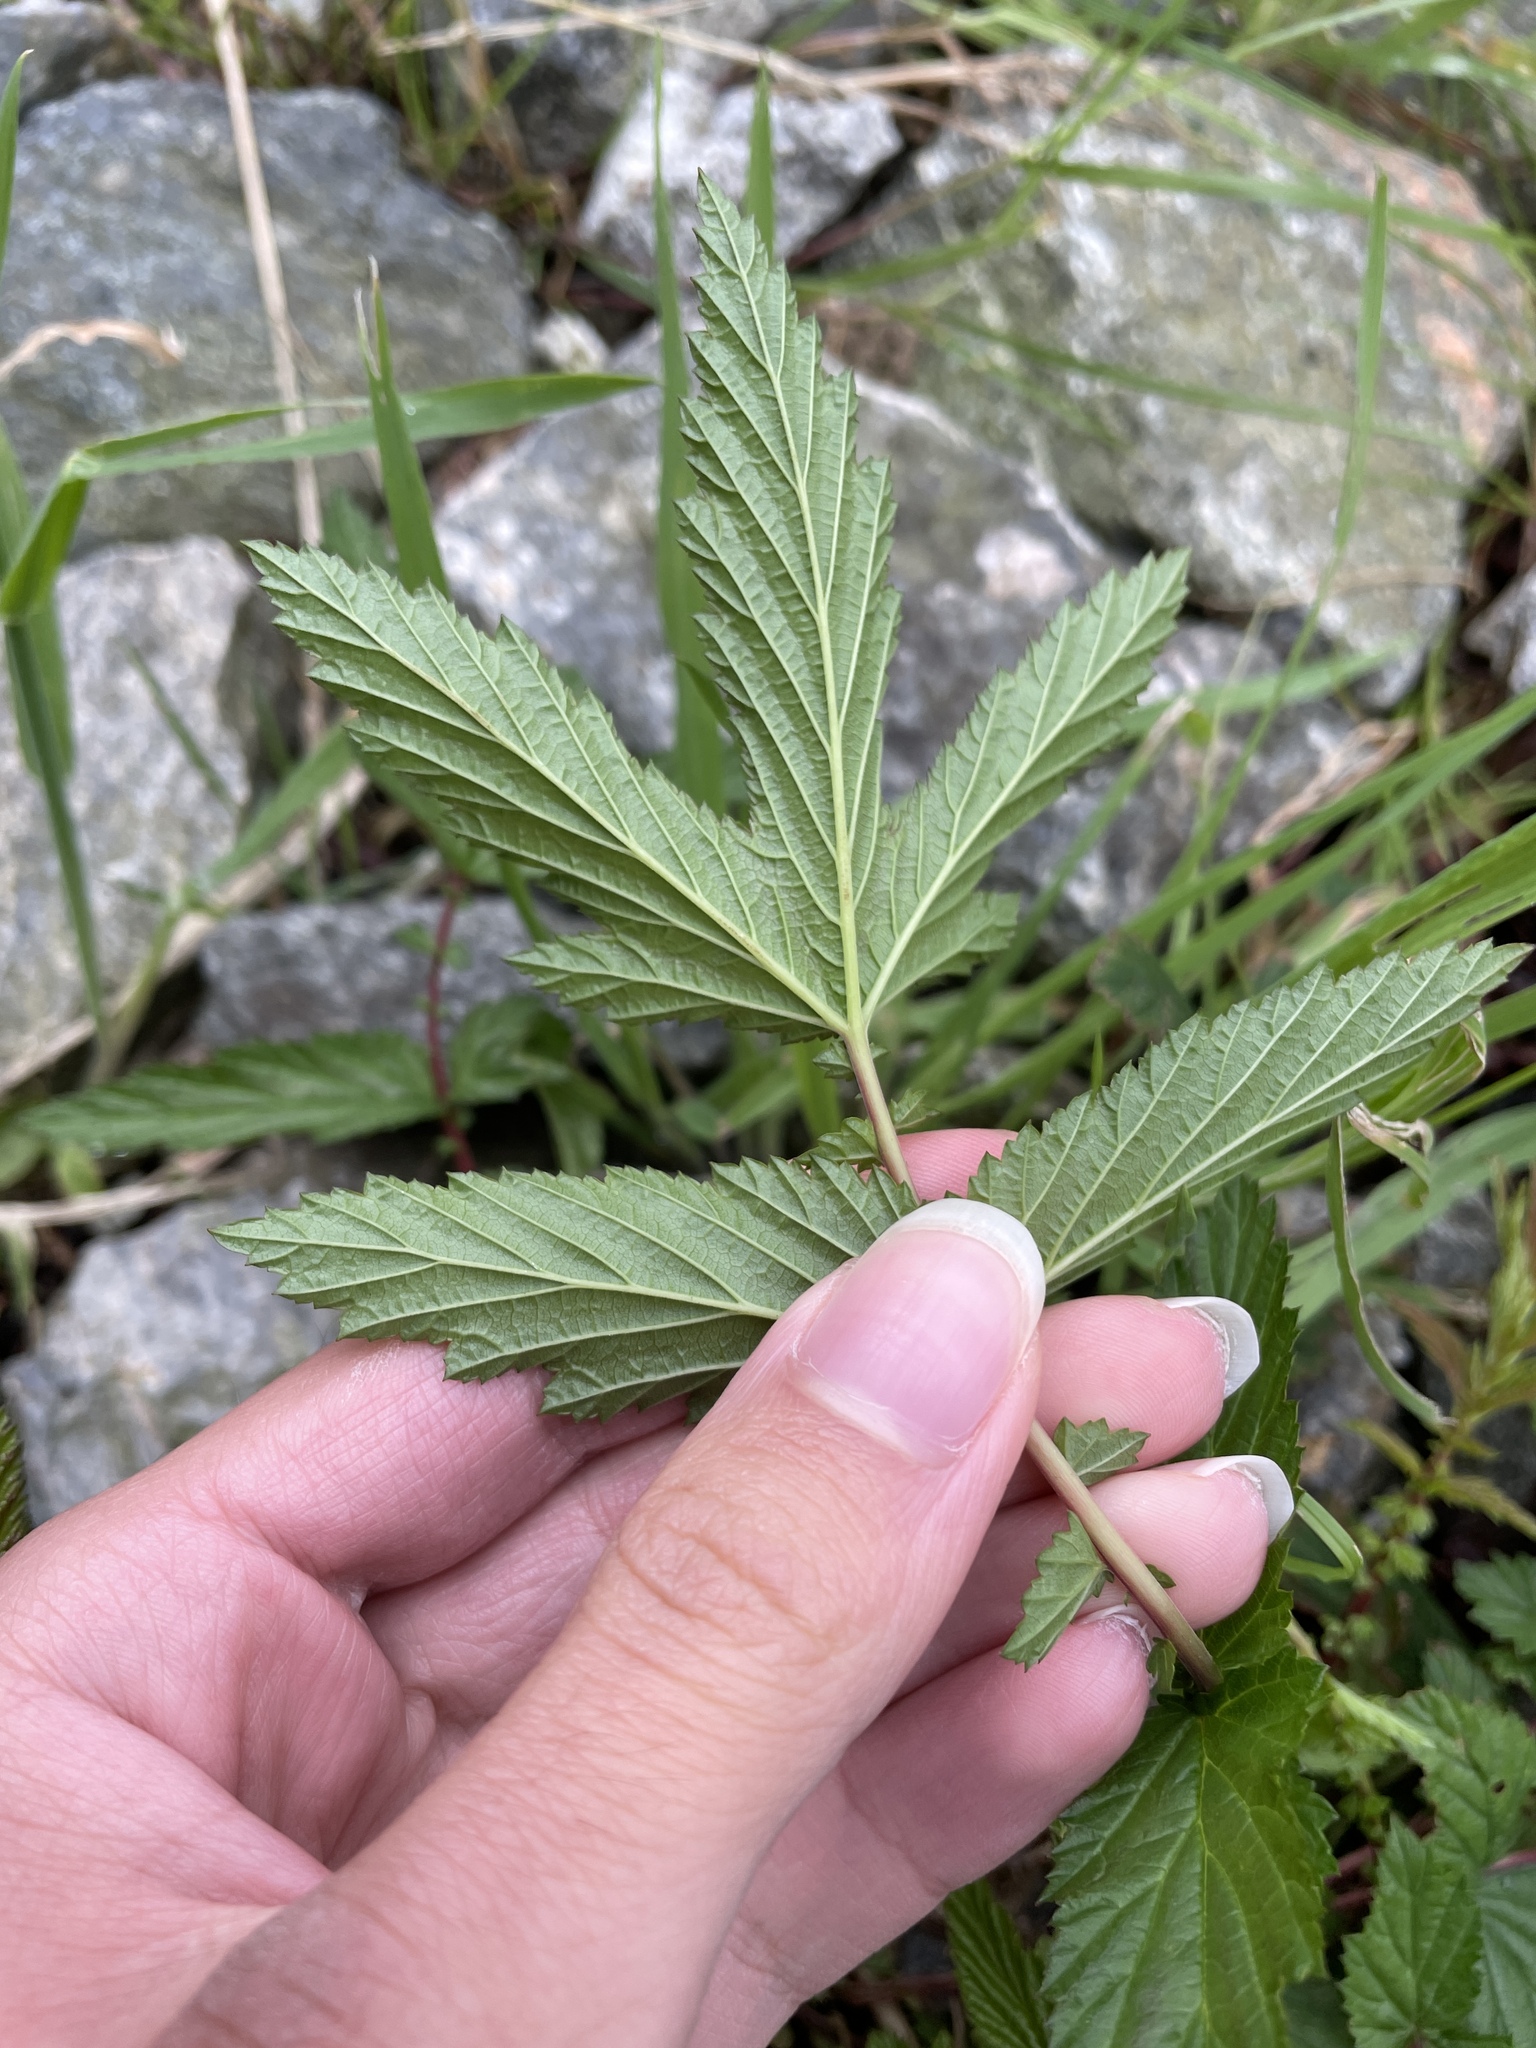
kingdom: Plantae
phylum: Tracheophyta
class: Magnoliopsida
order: Rosales
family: Rosaceae
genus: Filipendula
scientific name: Filipendula ulmaria
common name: Meadowsweet
